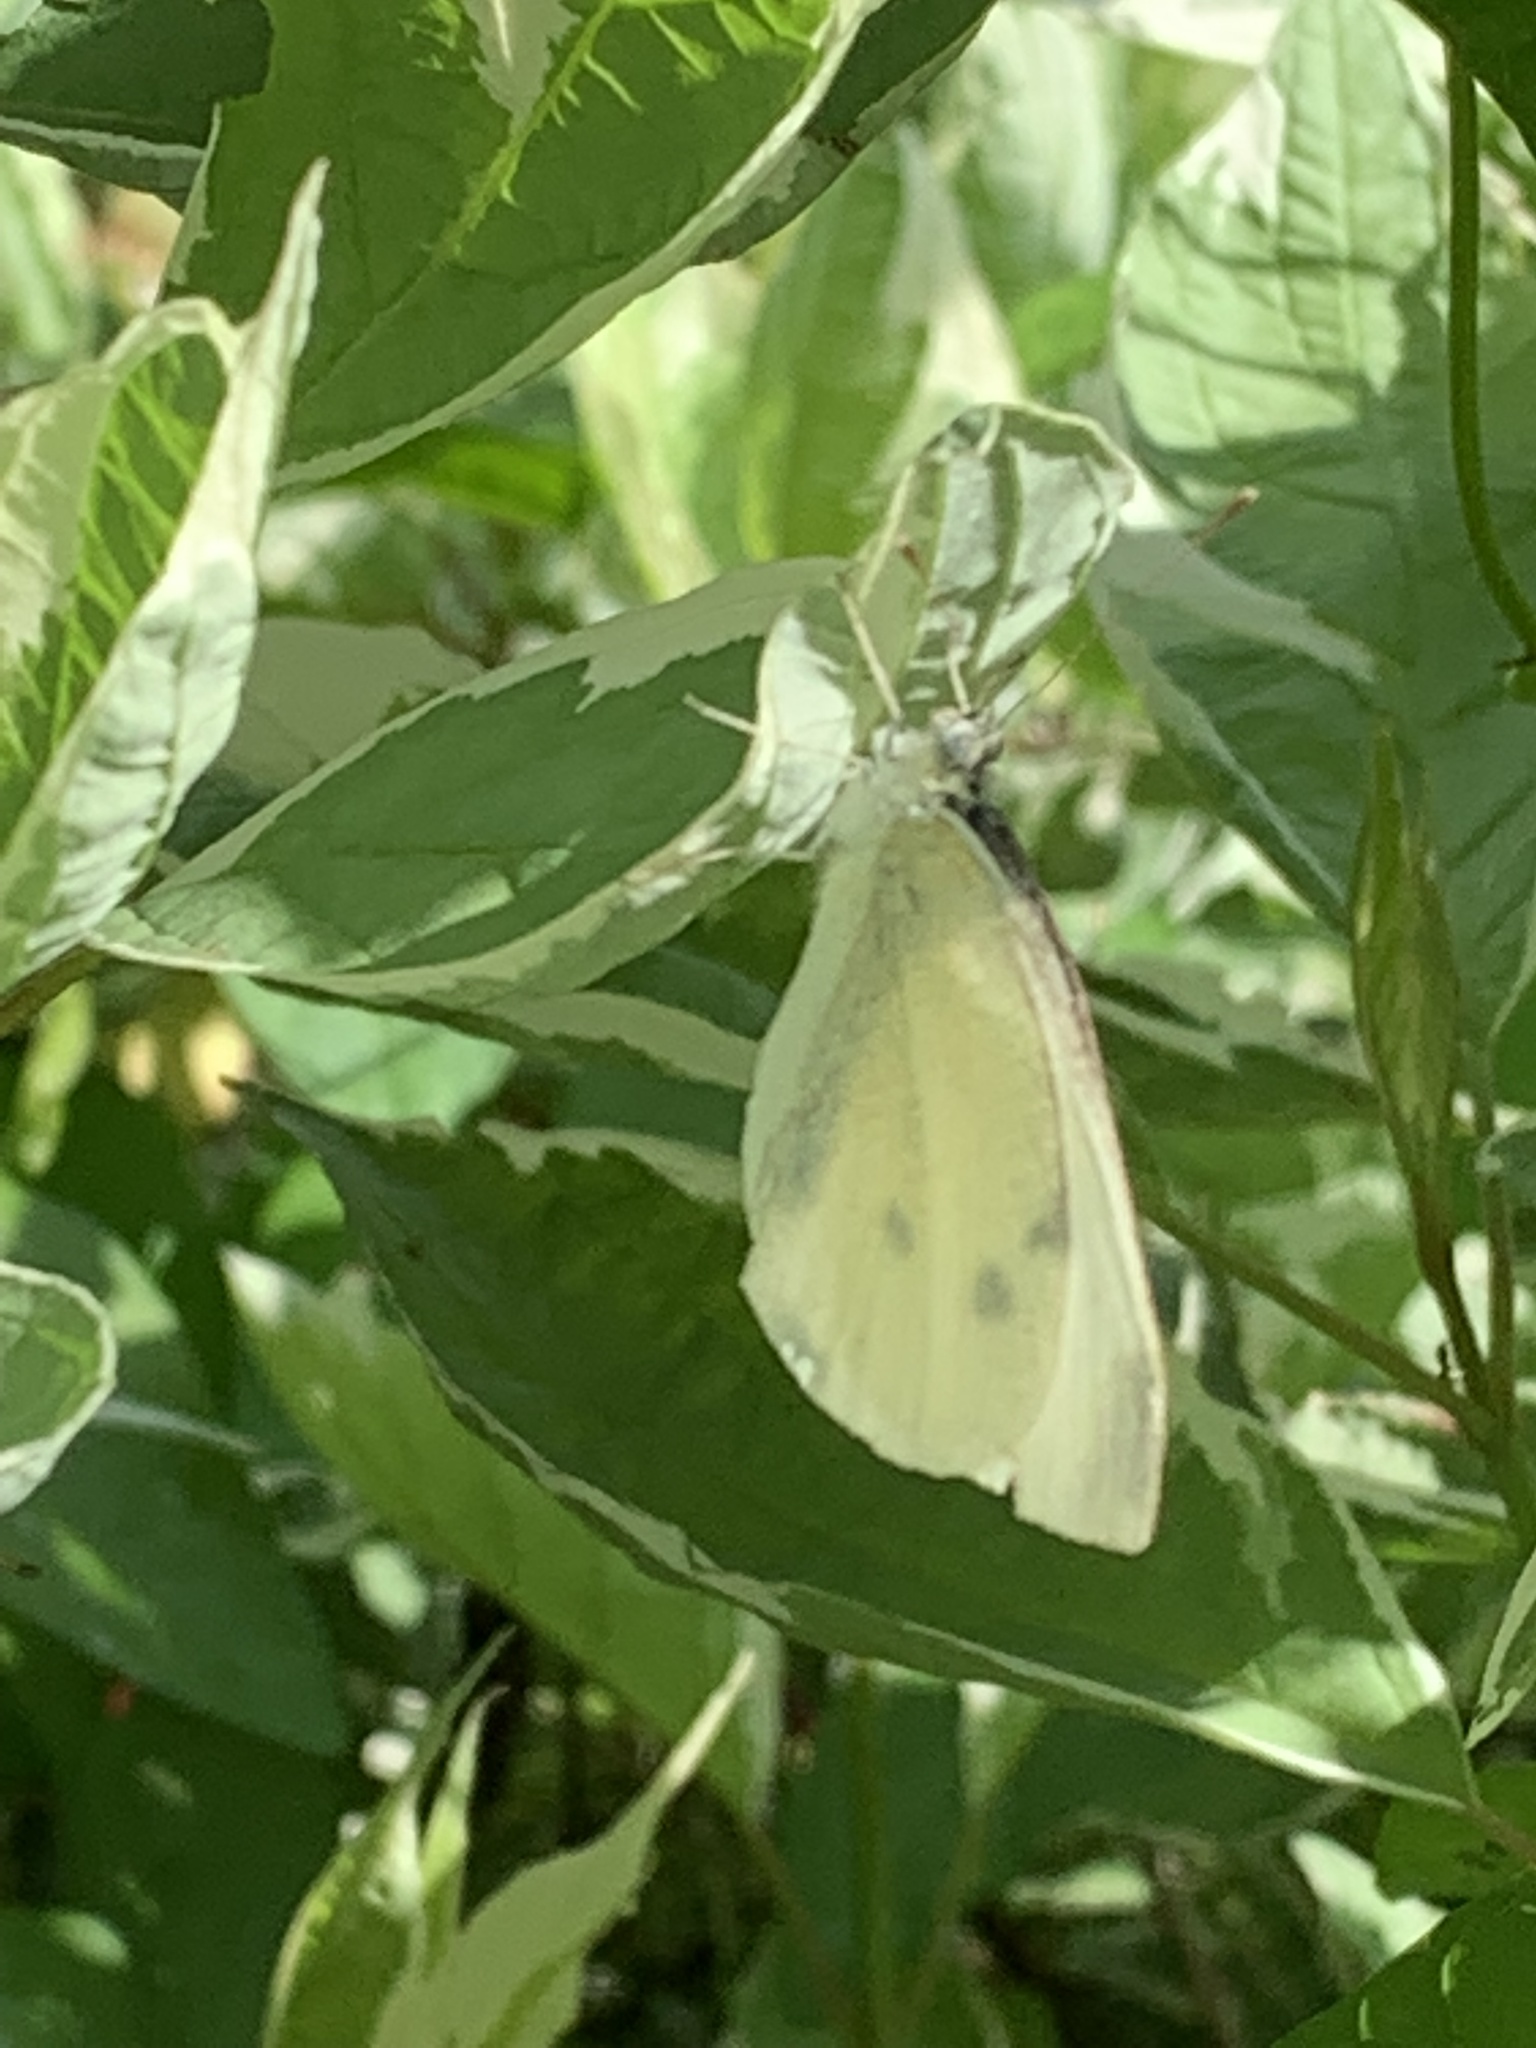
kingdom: Animalia
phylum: Arthropoda
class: Insecta
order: Lepidoptera
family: Pieridae
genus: Pieris
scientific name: Pieris rapae
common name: Small white
